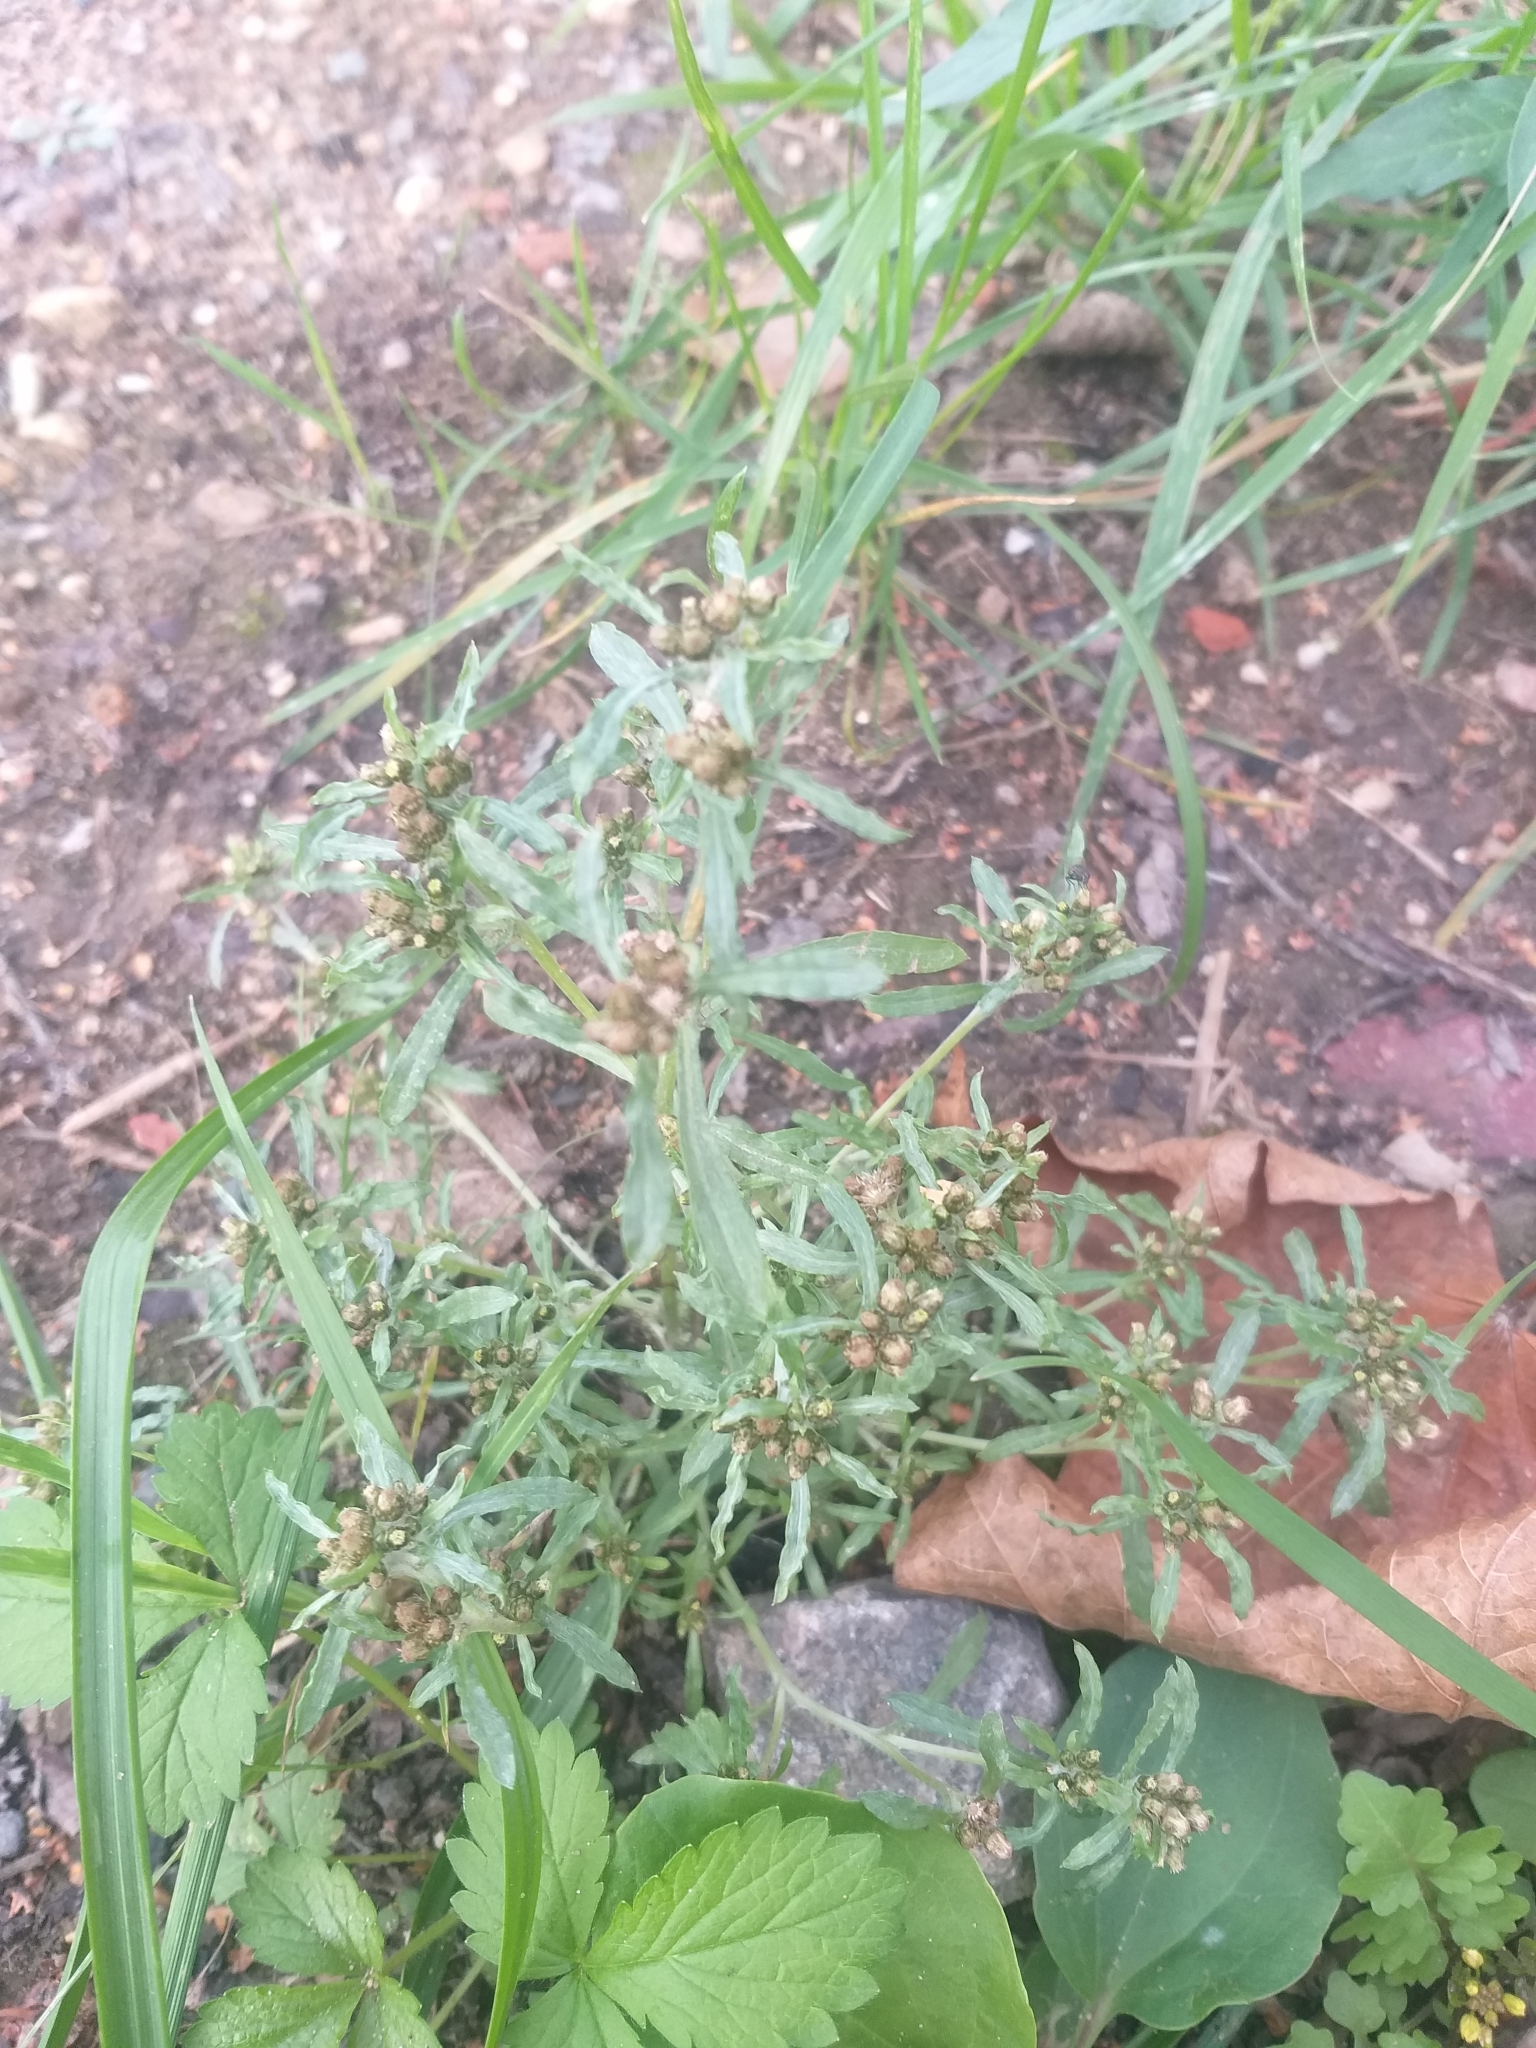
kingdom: Plantae
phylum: Tracheophyta
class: Magnoliopsida
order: Asterales
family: Asteraceae
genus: Gnaphalium
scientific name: Gnaphalium uliginosum
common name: Marsh cudweed
